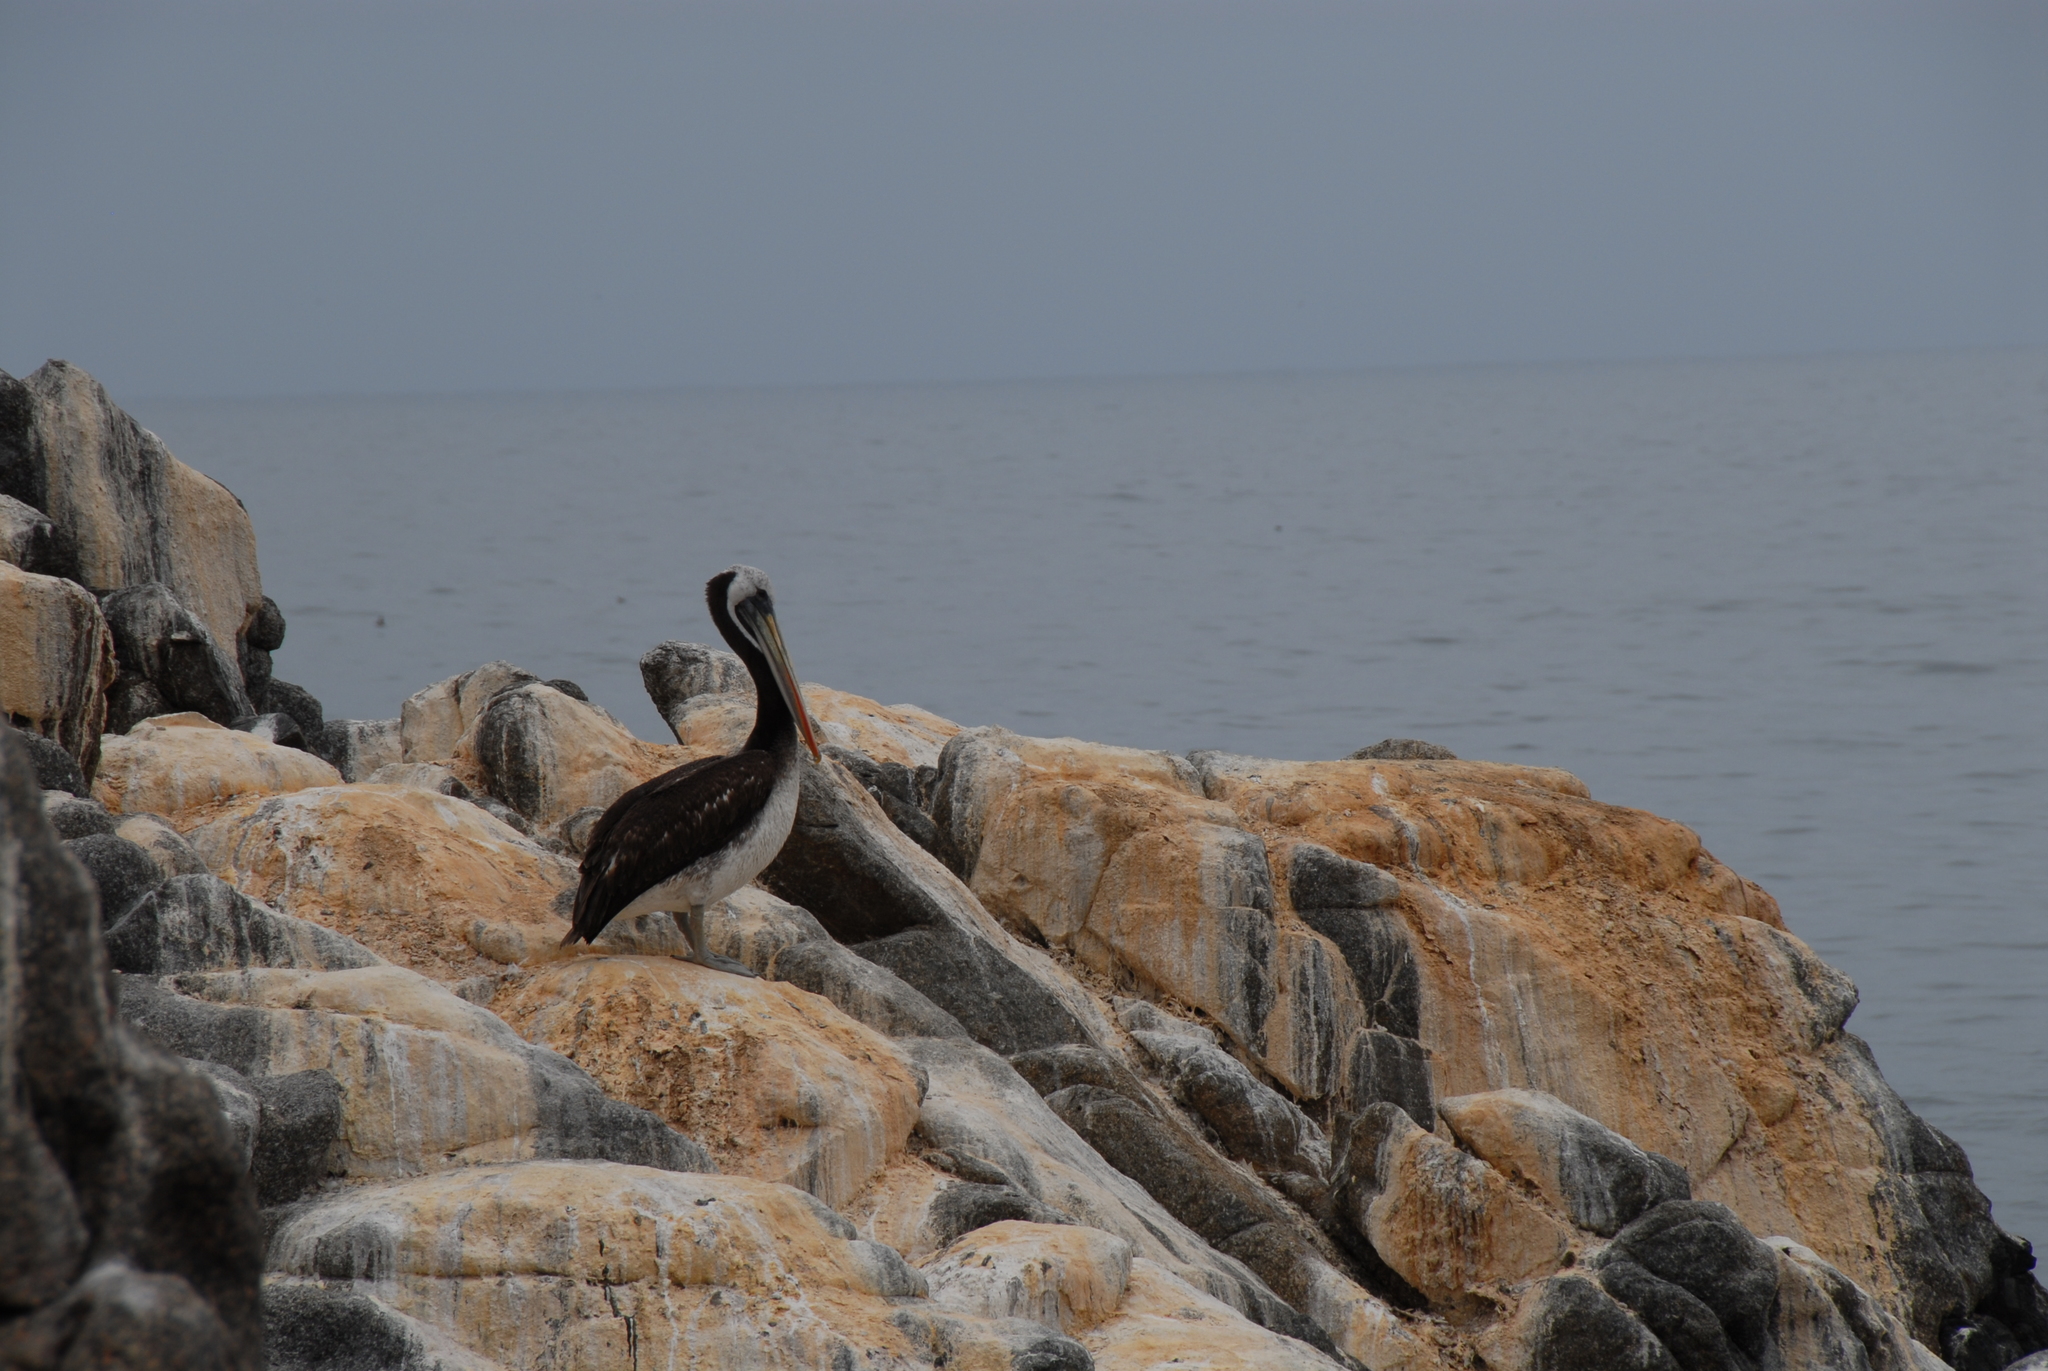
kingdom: Animalia
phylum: Chordata
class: Aves
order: Pelecaniformes
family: Pelecanidae
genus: Pelecanus
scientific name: Pelecanus thagus
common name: Peruvian pelican
